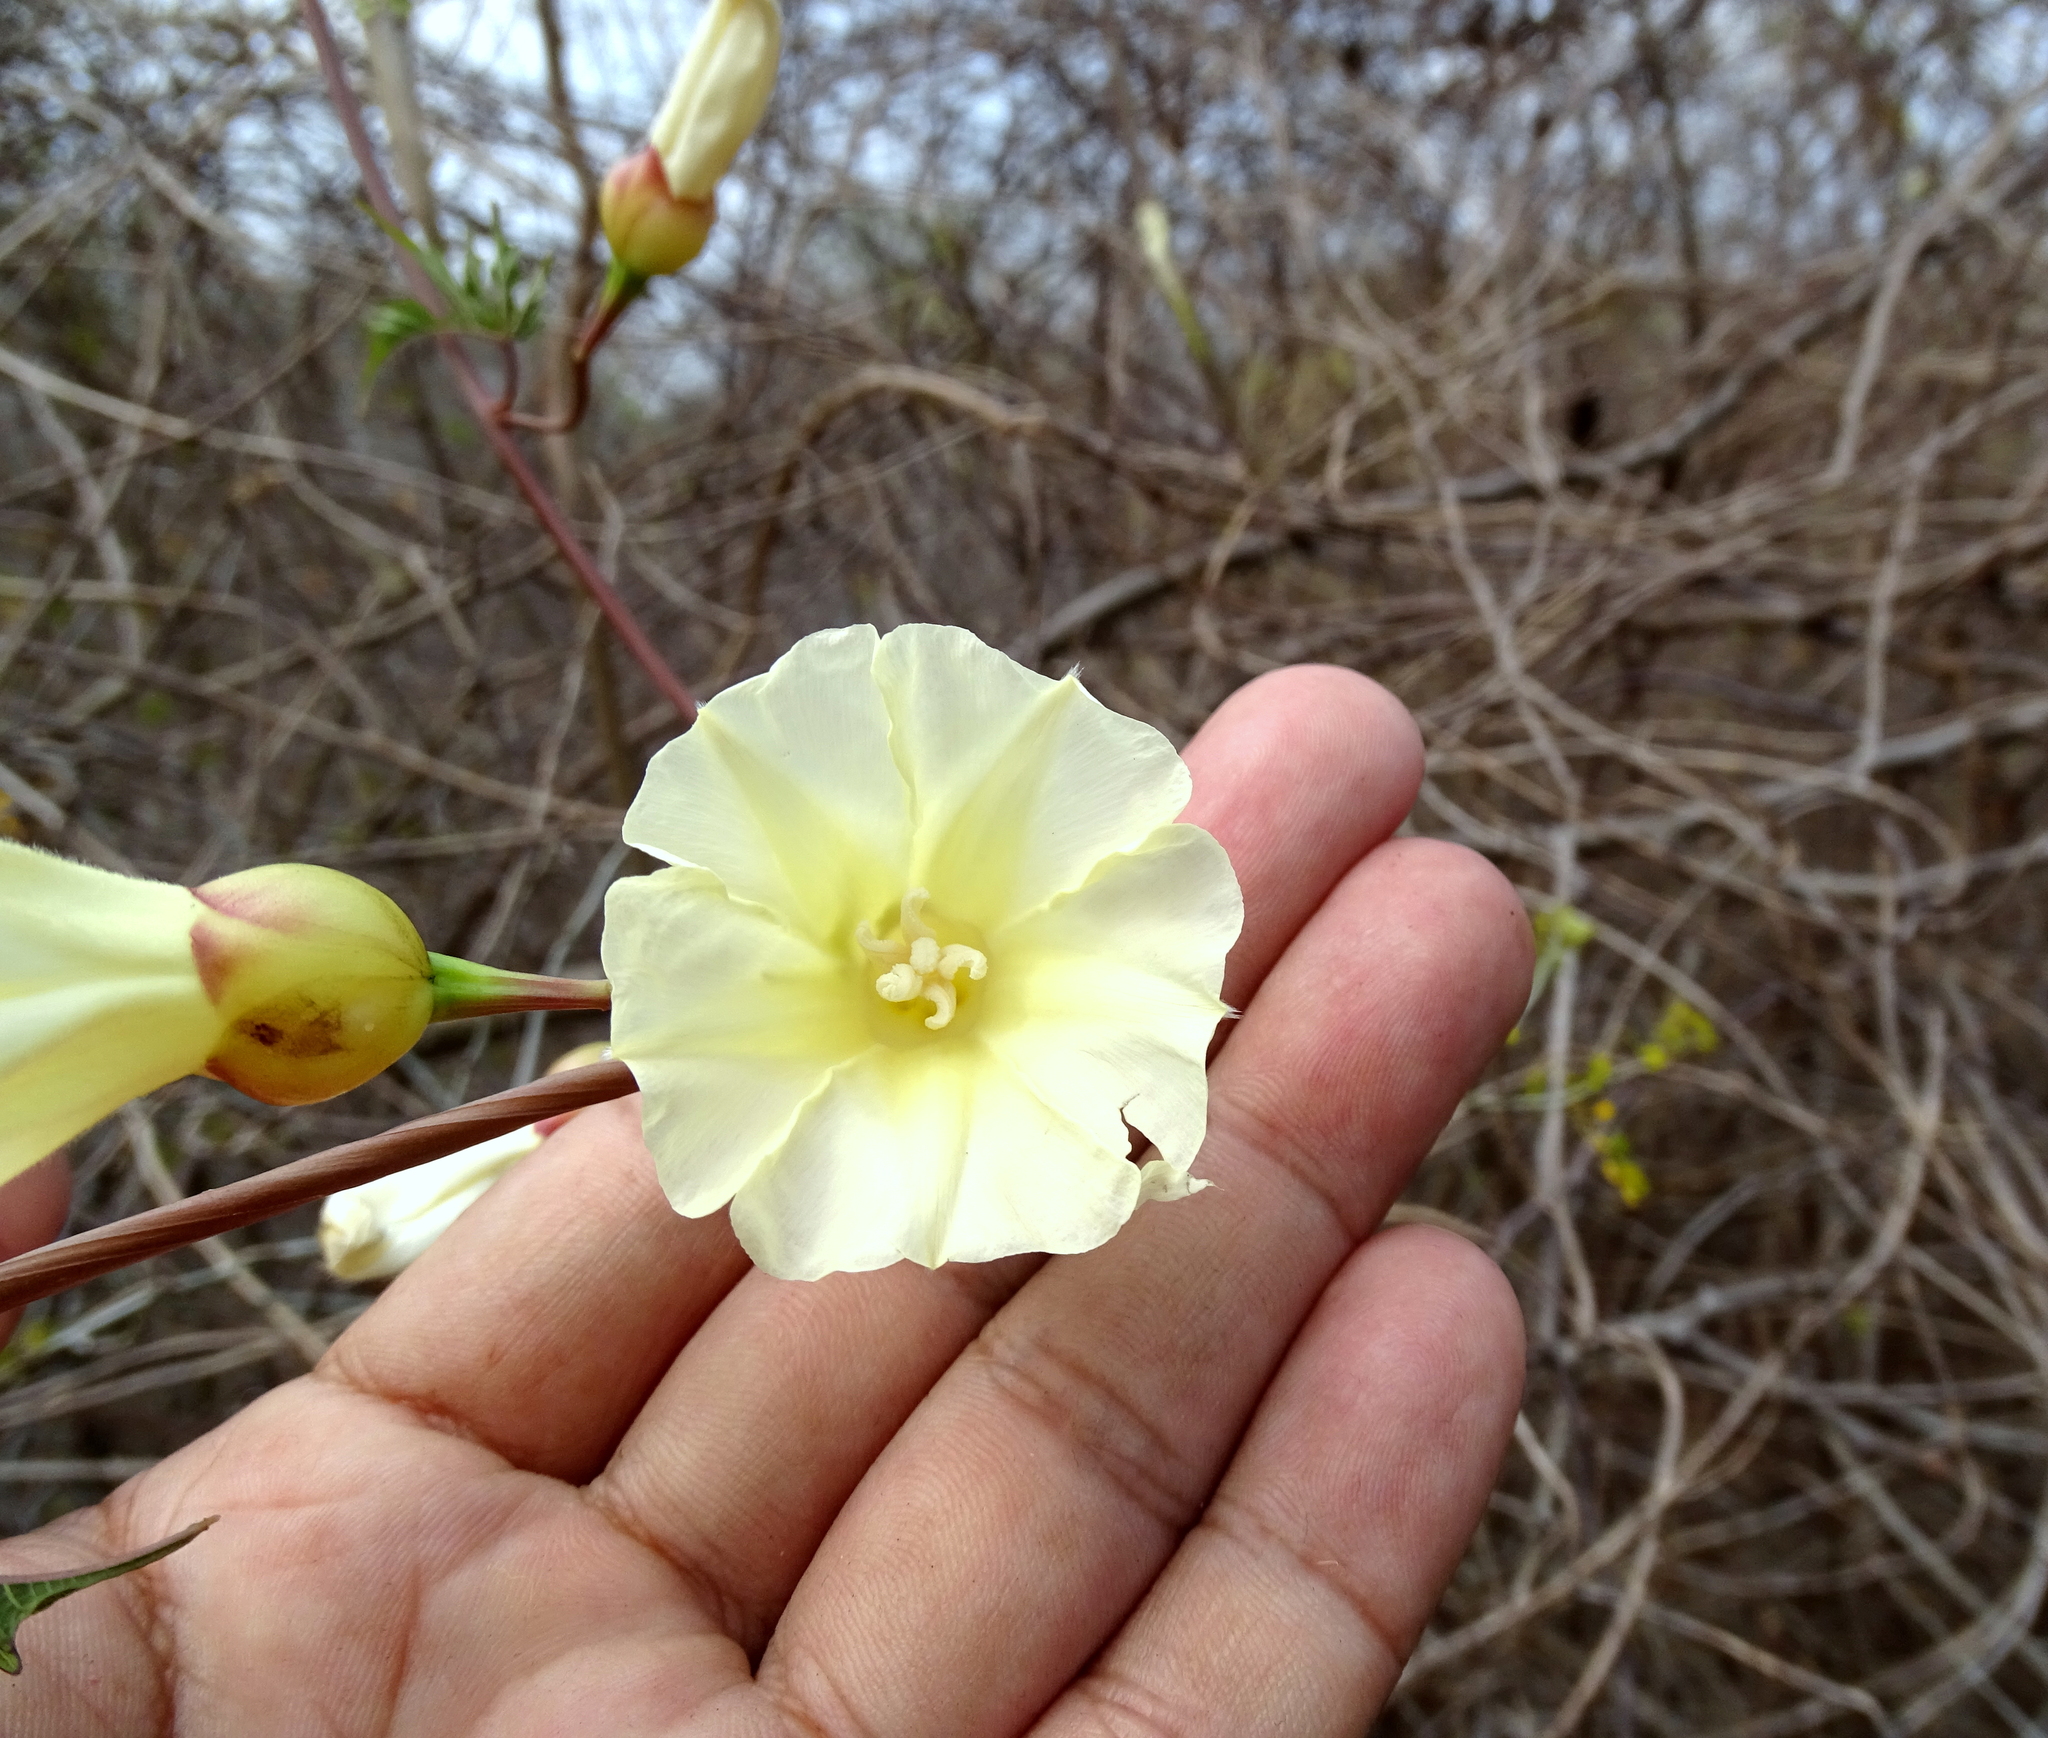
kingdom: Plantae
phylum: Tracheophyta
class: Magnoliopsida
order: Solanales
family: Convolvulaceae
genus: Operculina
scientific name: Operculina pinnatifida
